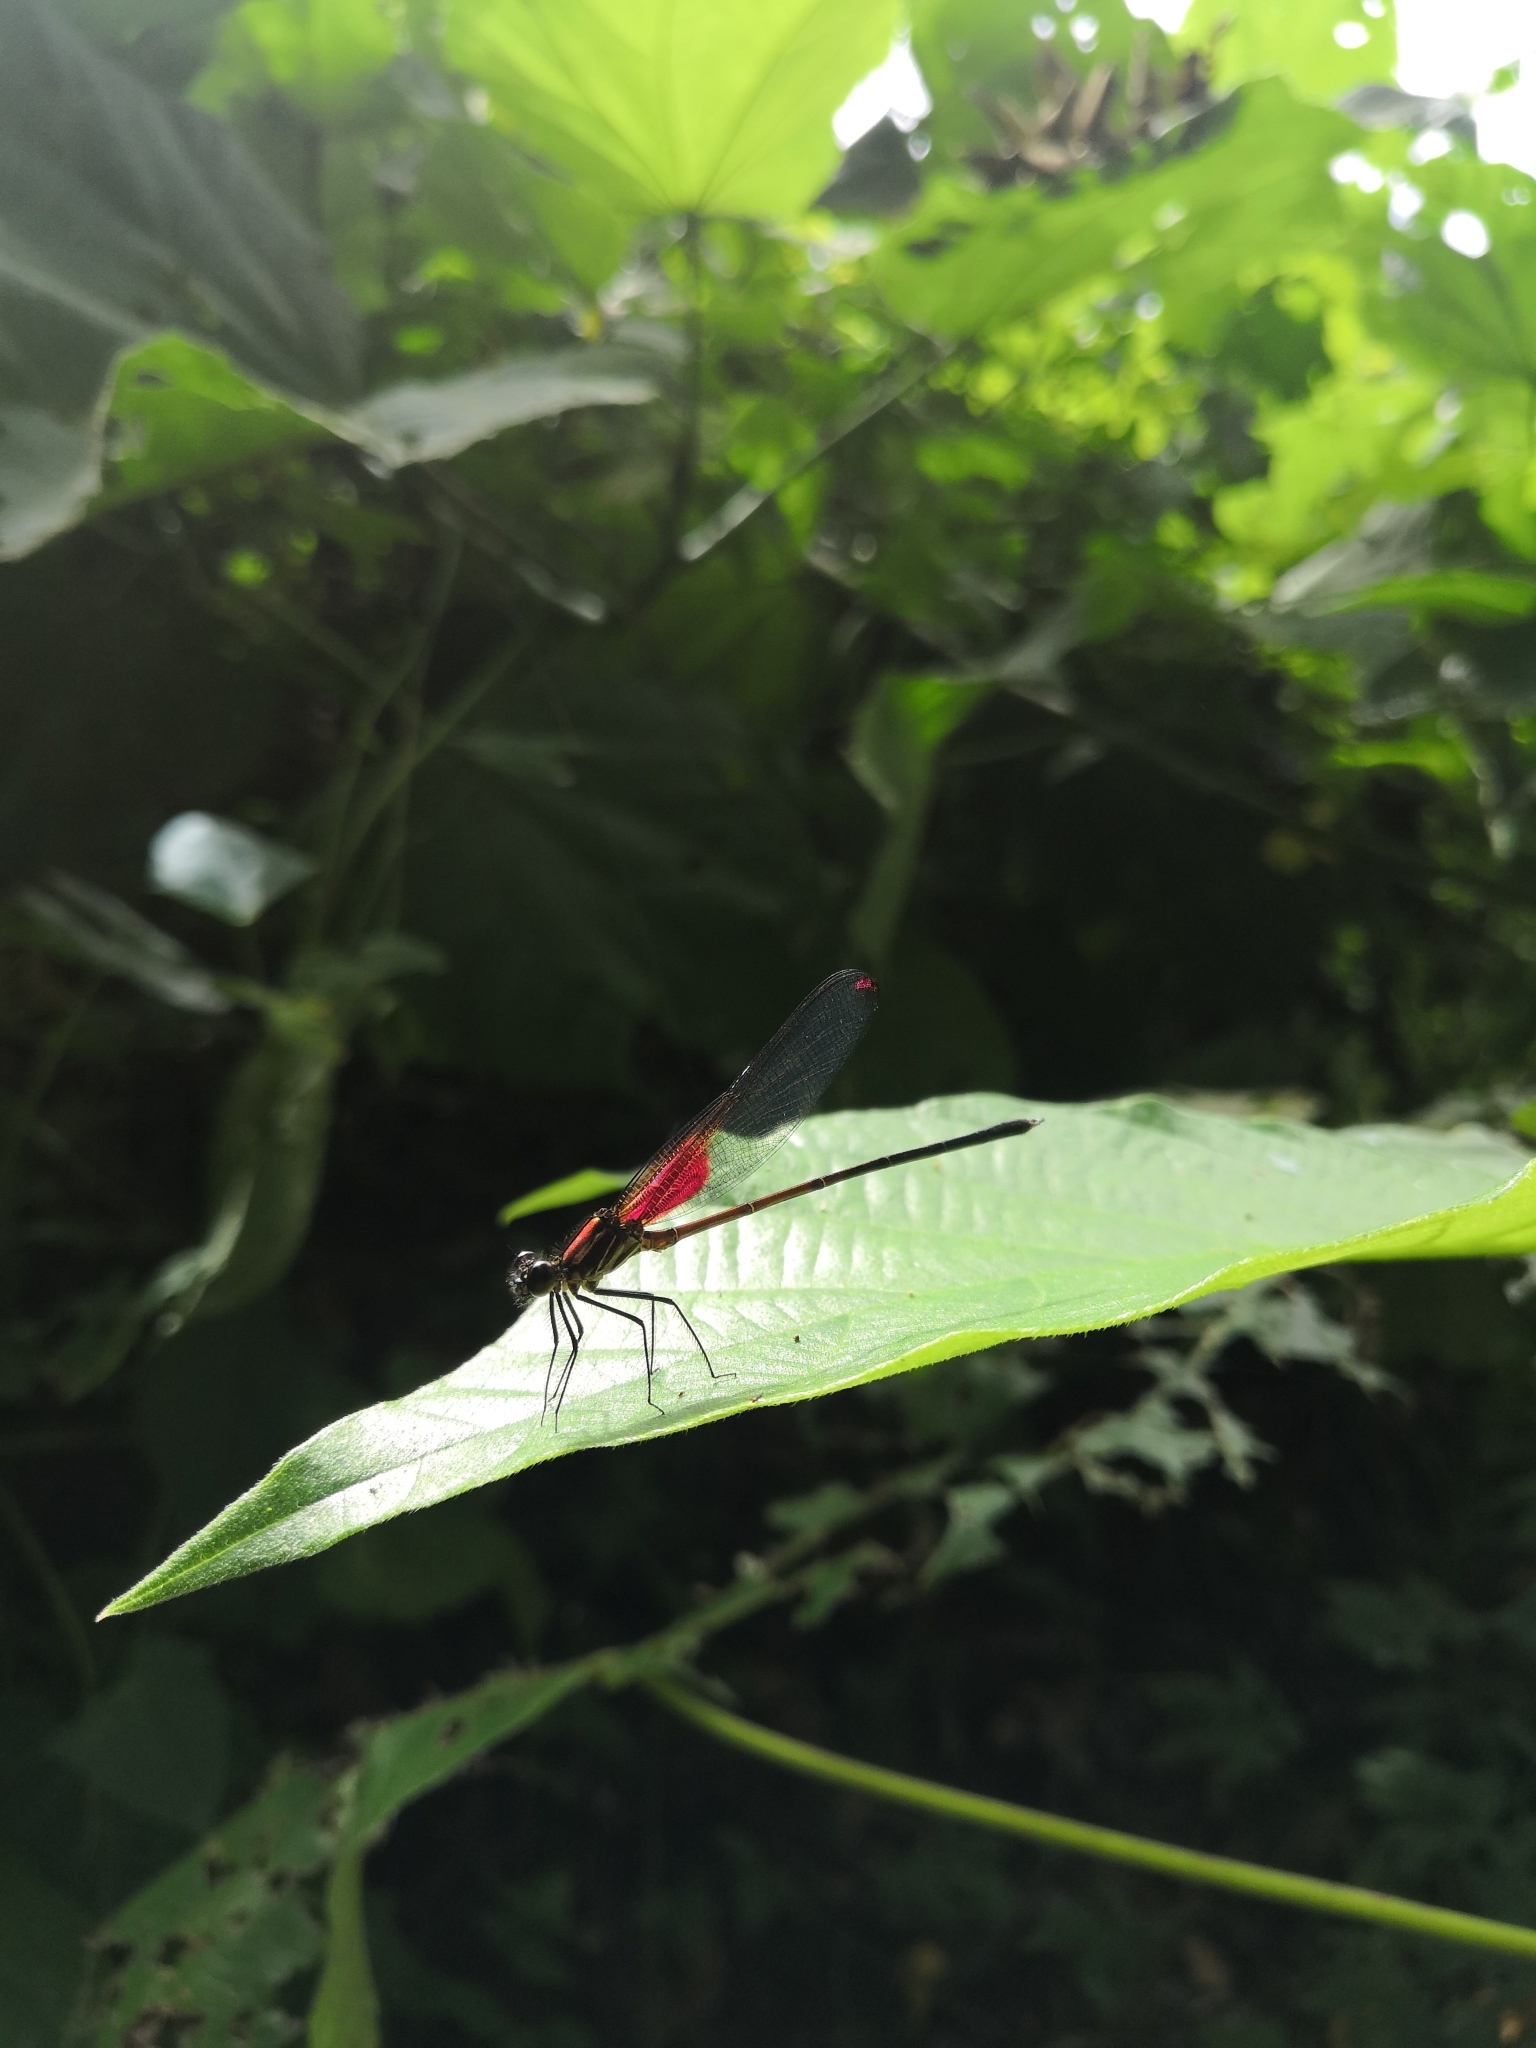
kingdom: Animalia
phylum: Arthropoda
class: Insecta
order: Odonata
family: Calopterygidae
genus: Hetaerina
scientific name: Hetaerina occisa
